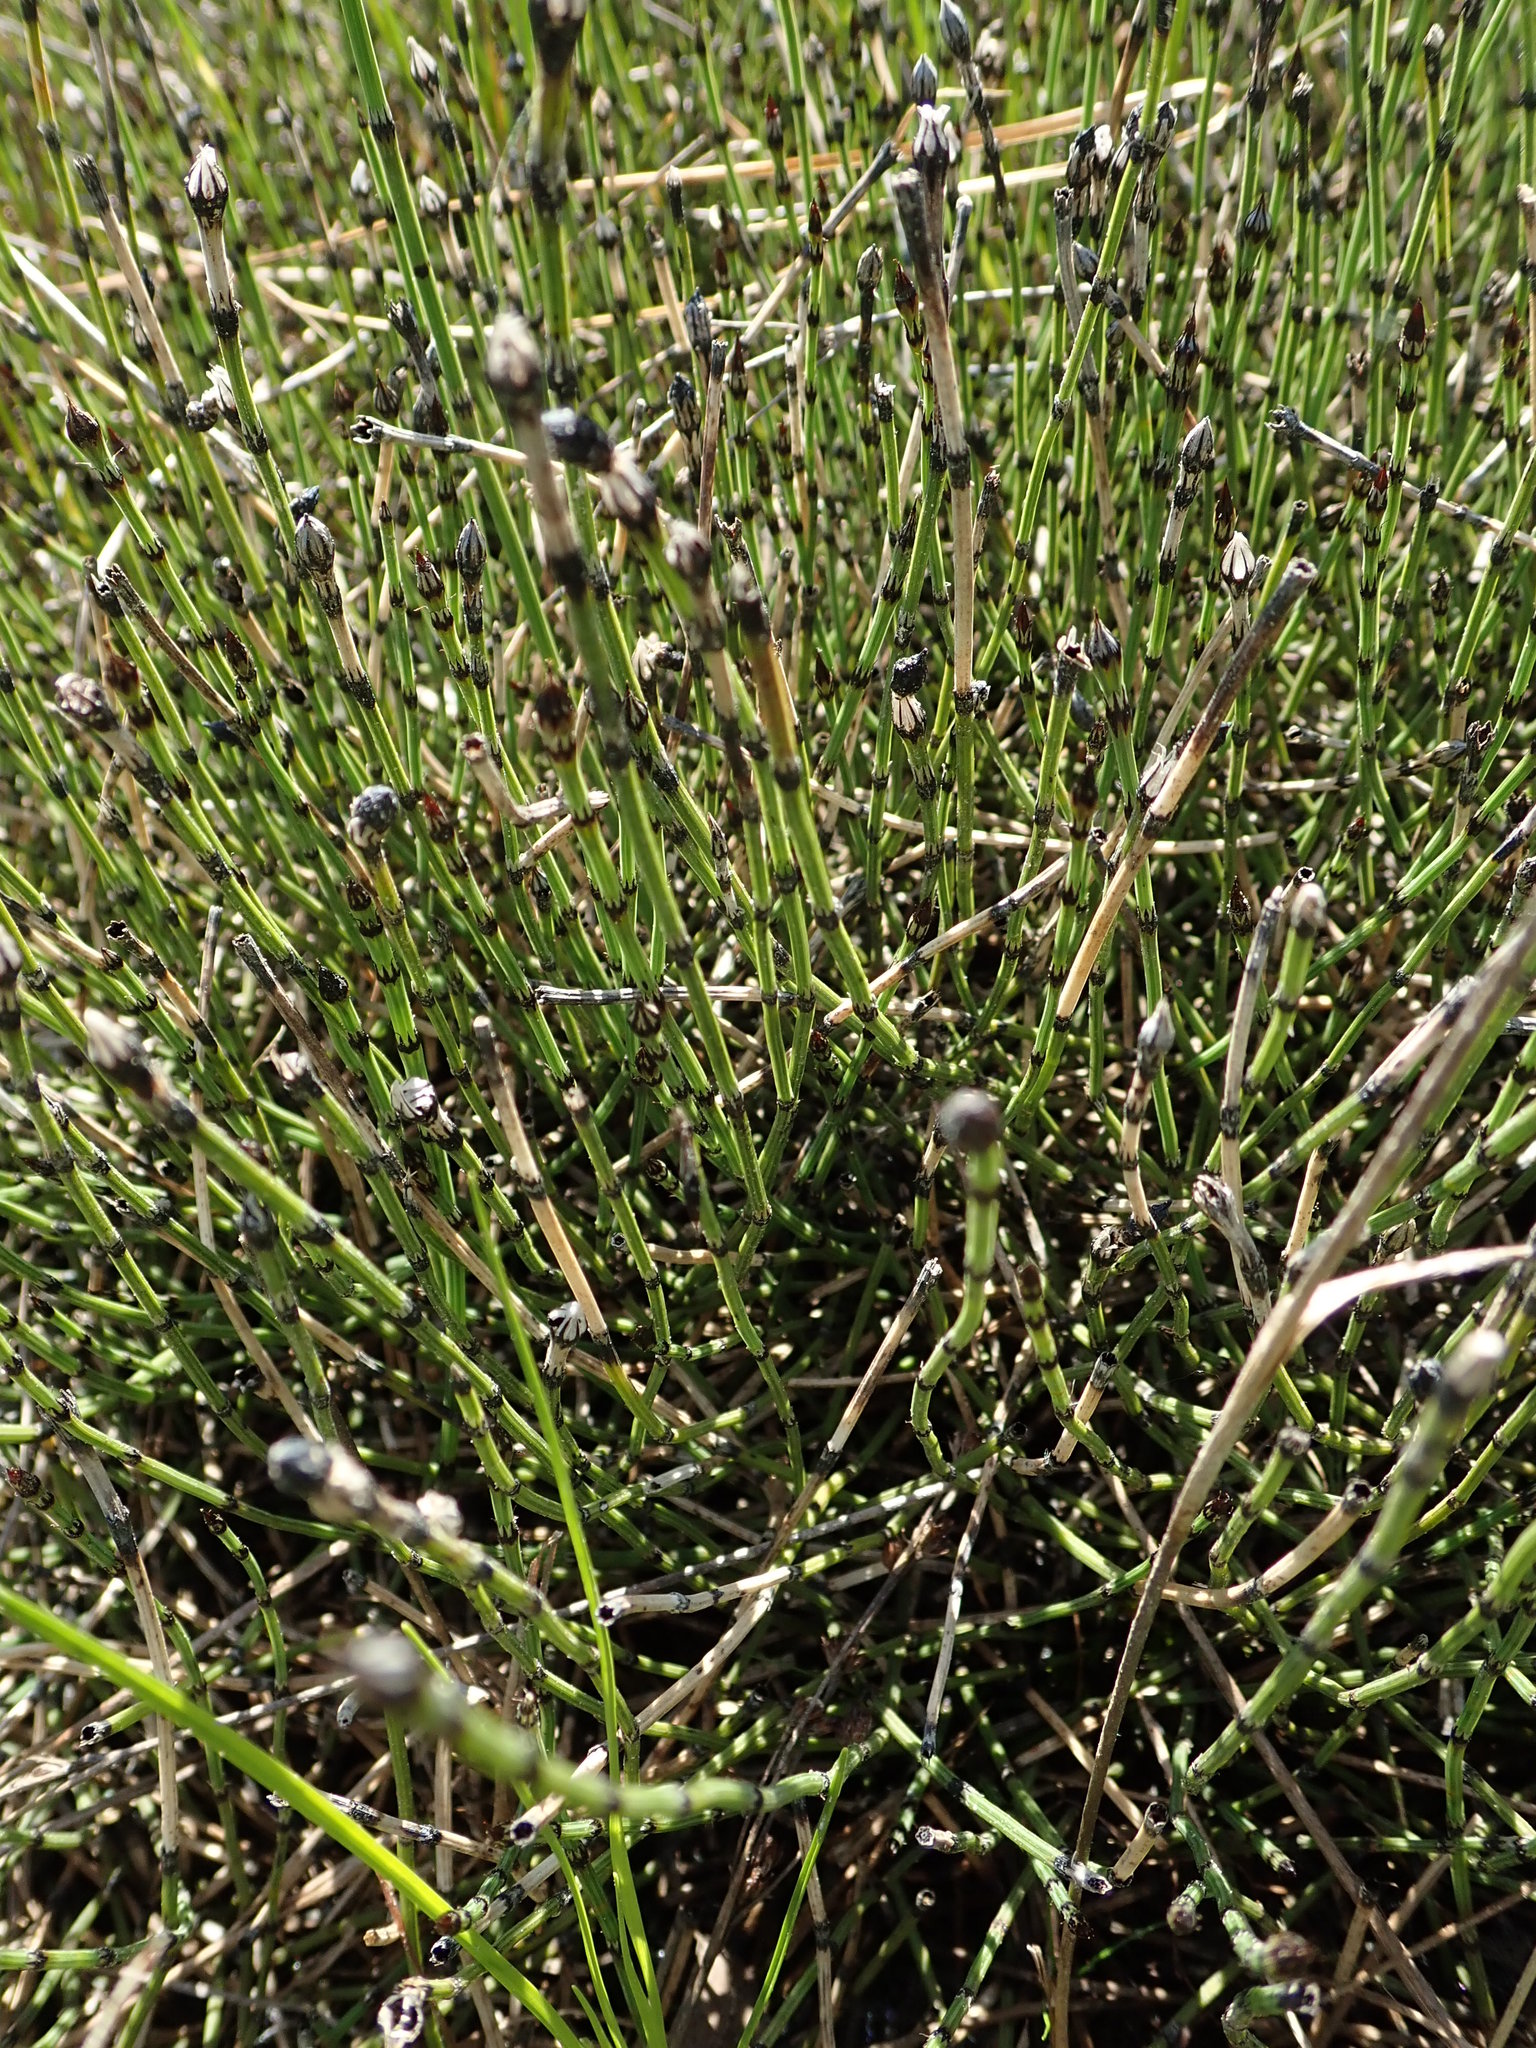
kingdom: Plantae
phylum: Tracheophyta
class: Polypodiopsida
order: Equisetales
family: Equisetaceae
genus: Equisetum
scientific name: Equisetum variegatum
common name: Variegated horsetail
